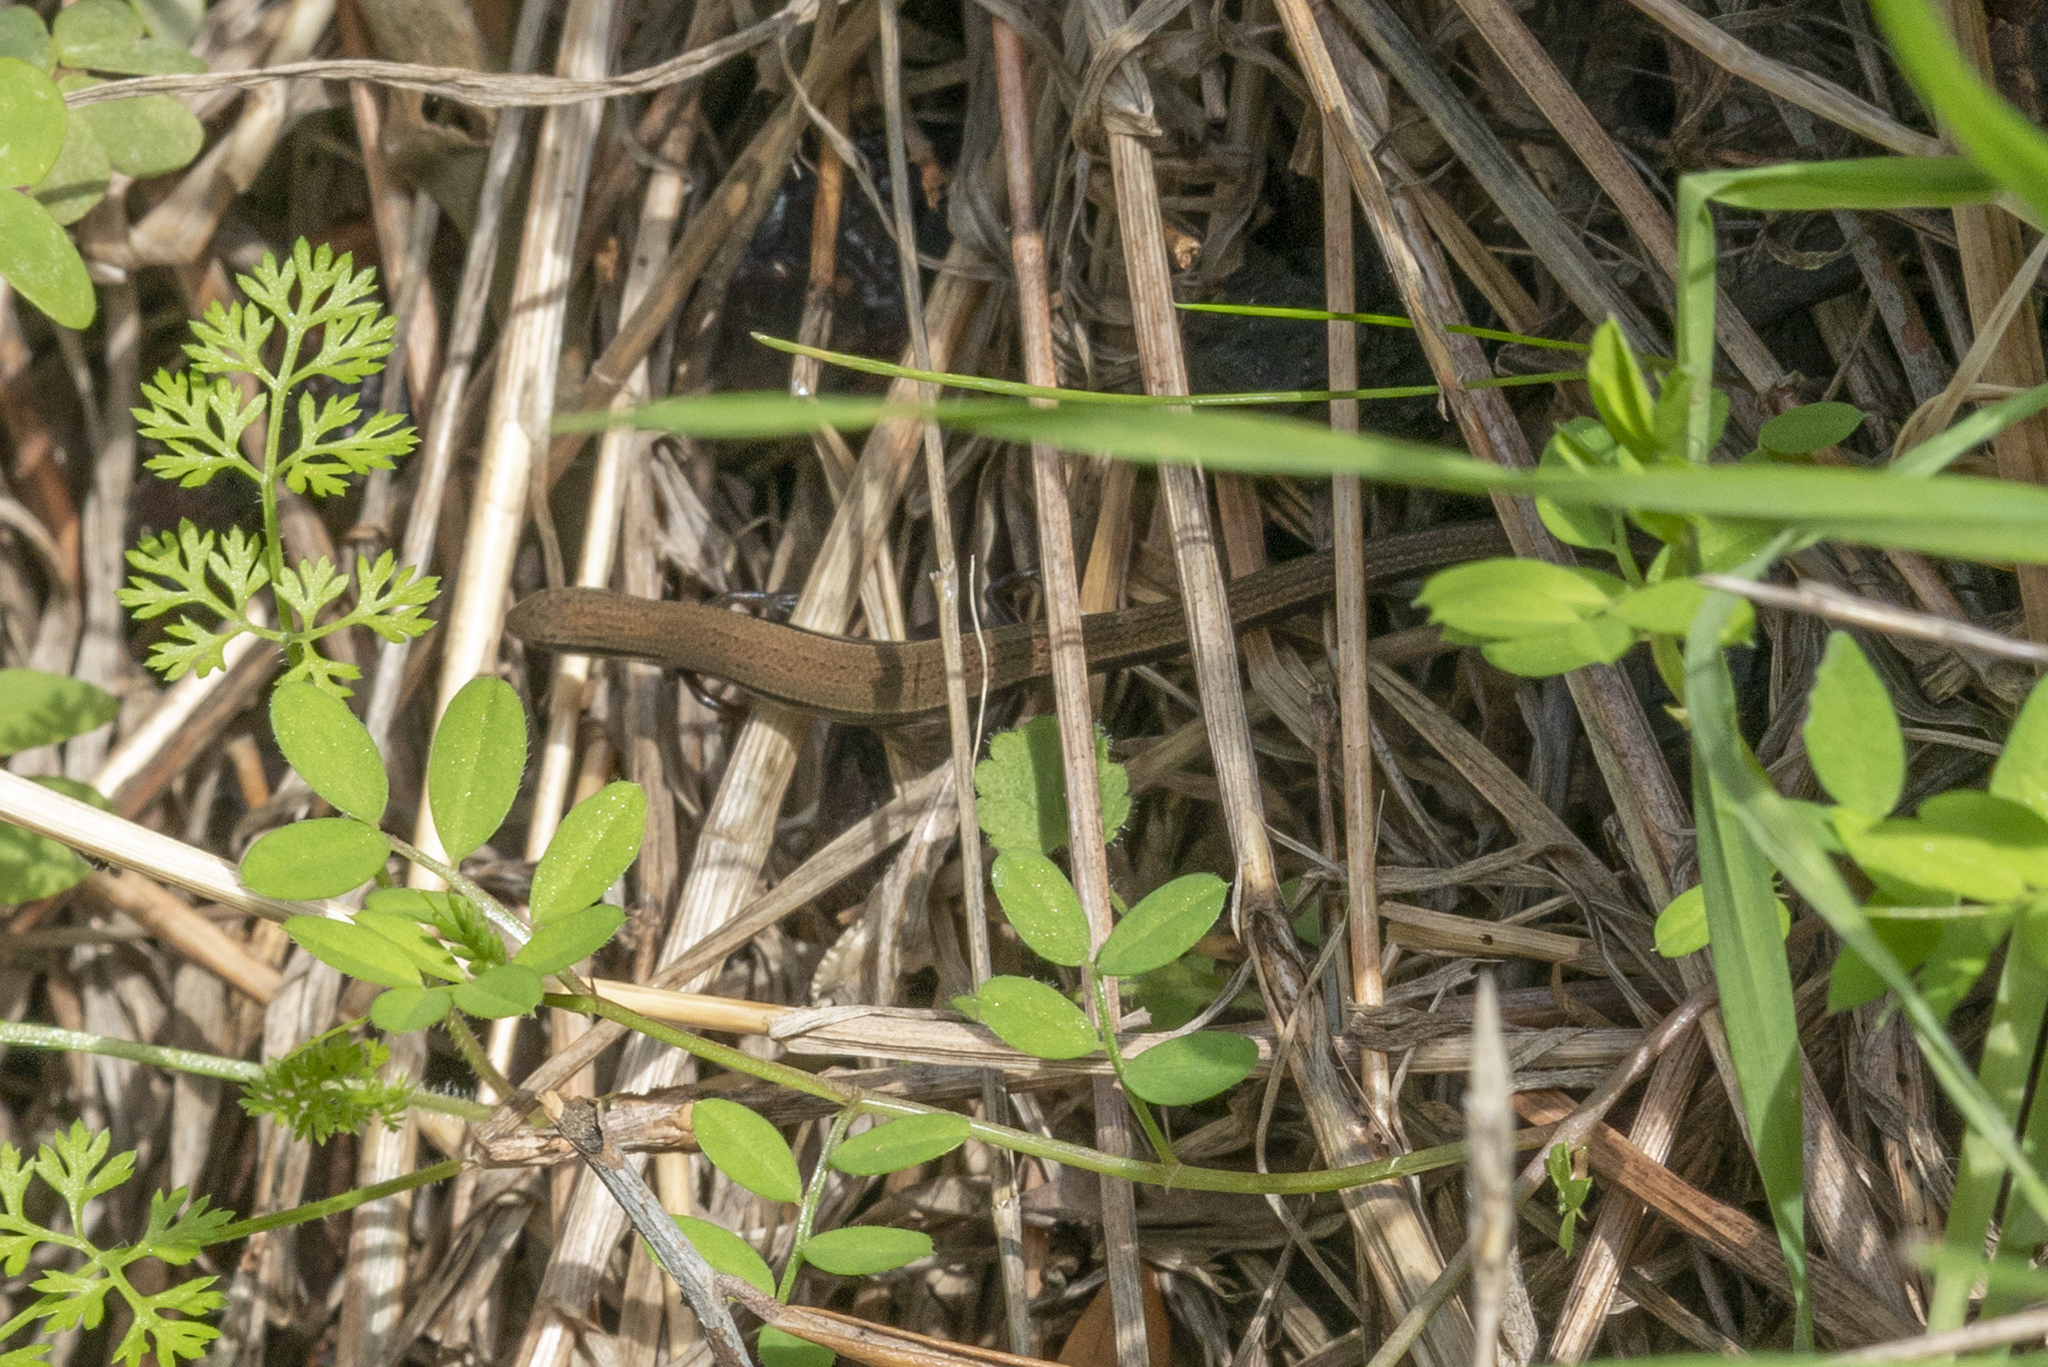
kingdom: Animalia
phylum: Chordata
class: Squamata
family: Scincidae
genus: Ablepharus
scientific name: Ablepharus kitaibelii
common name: Juniper skink
